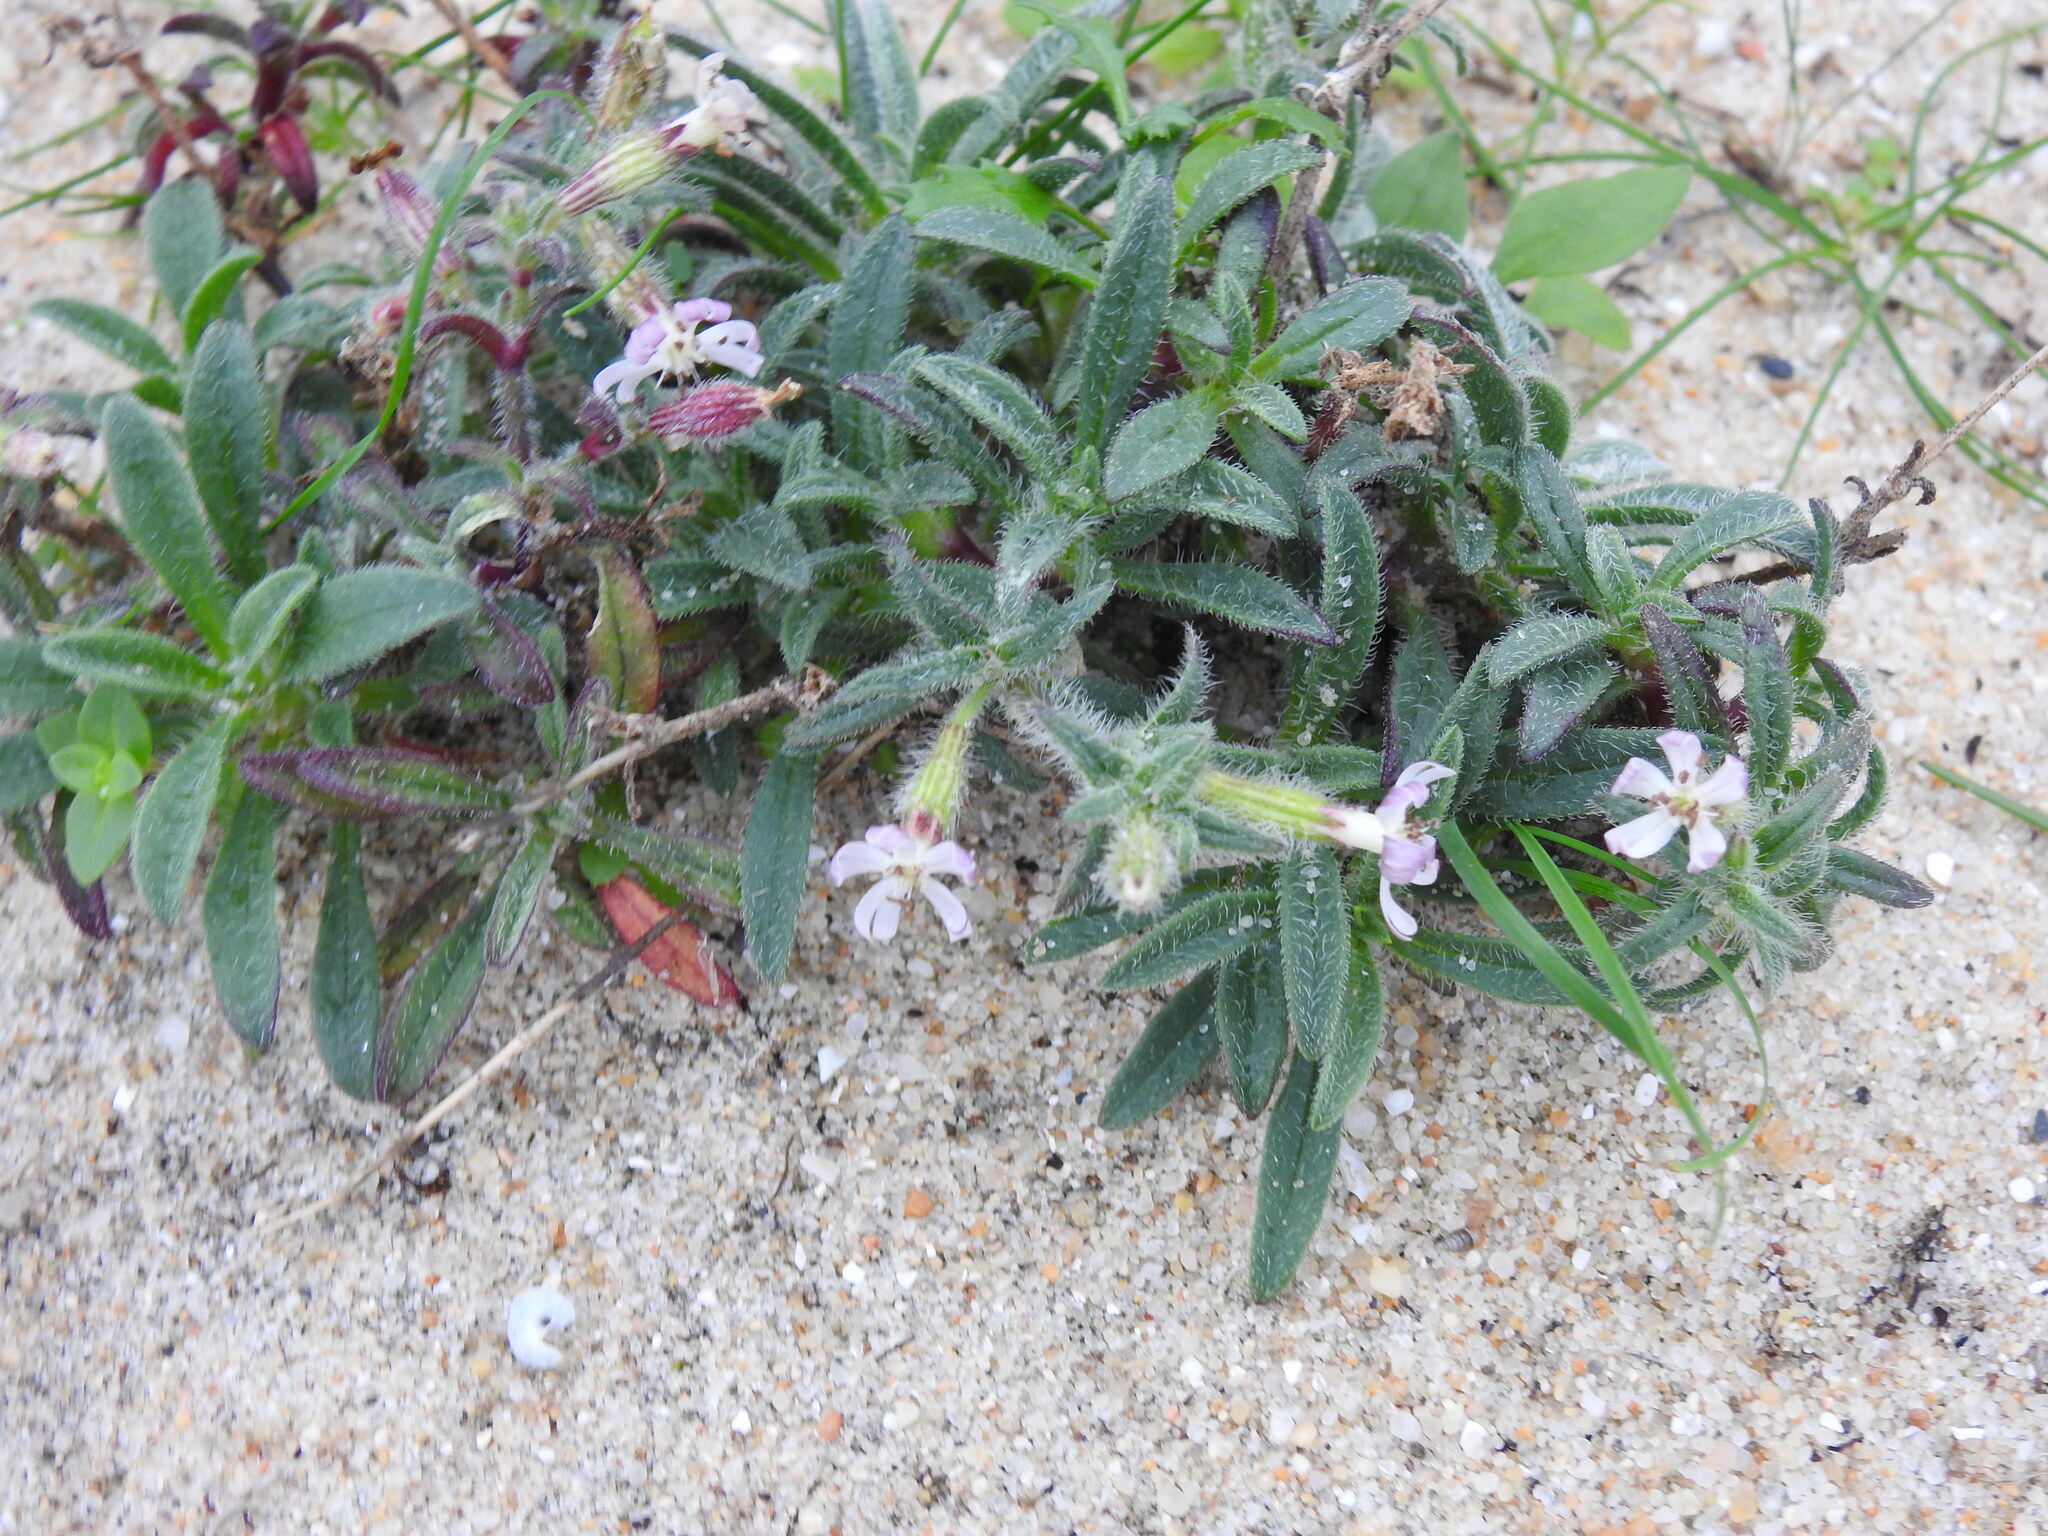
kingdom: Plantae
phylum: Tracheophyta
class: Magnoliopsida
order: Caryophyllales
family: Caryophyllaceae
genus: Silene
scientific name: Silene nicaeensis
